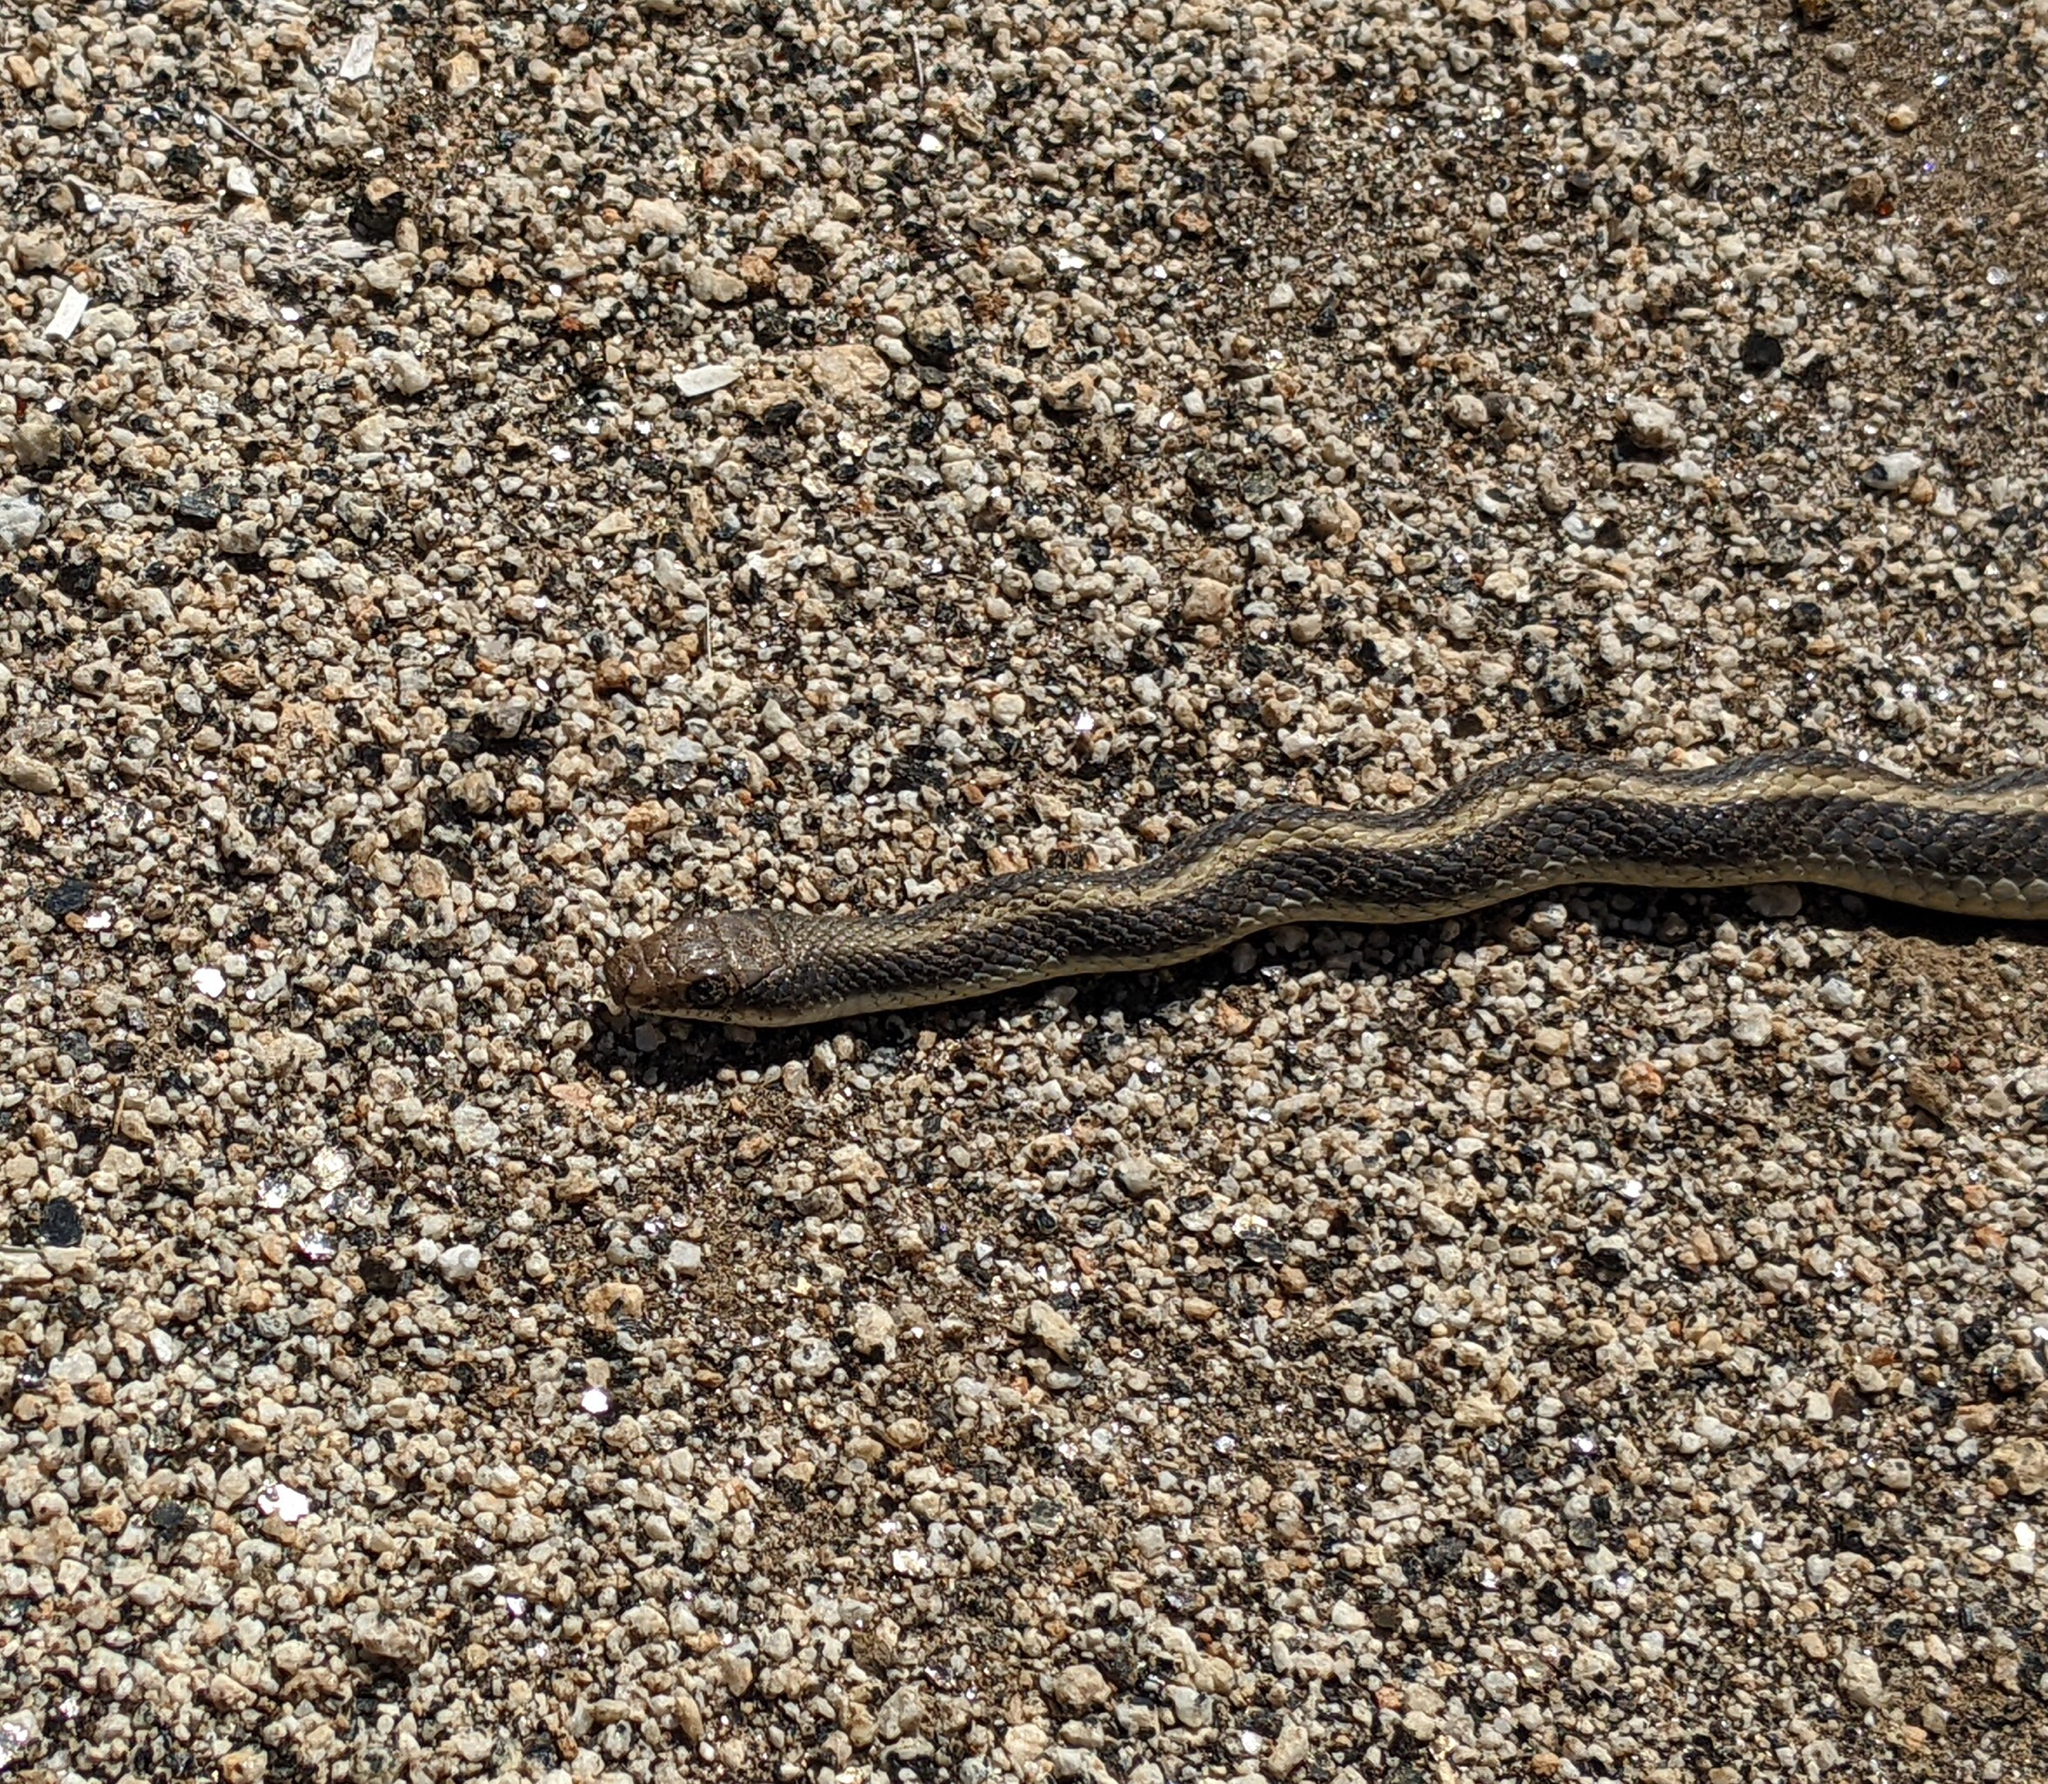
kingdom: Animalia
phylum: Chordata
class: Squamata
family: Colubridae
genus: Salvadora
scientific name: Salvadora hexalepis
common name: Western patchnose snake
